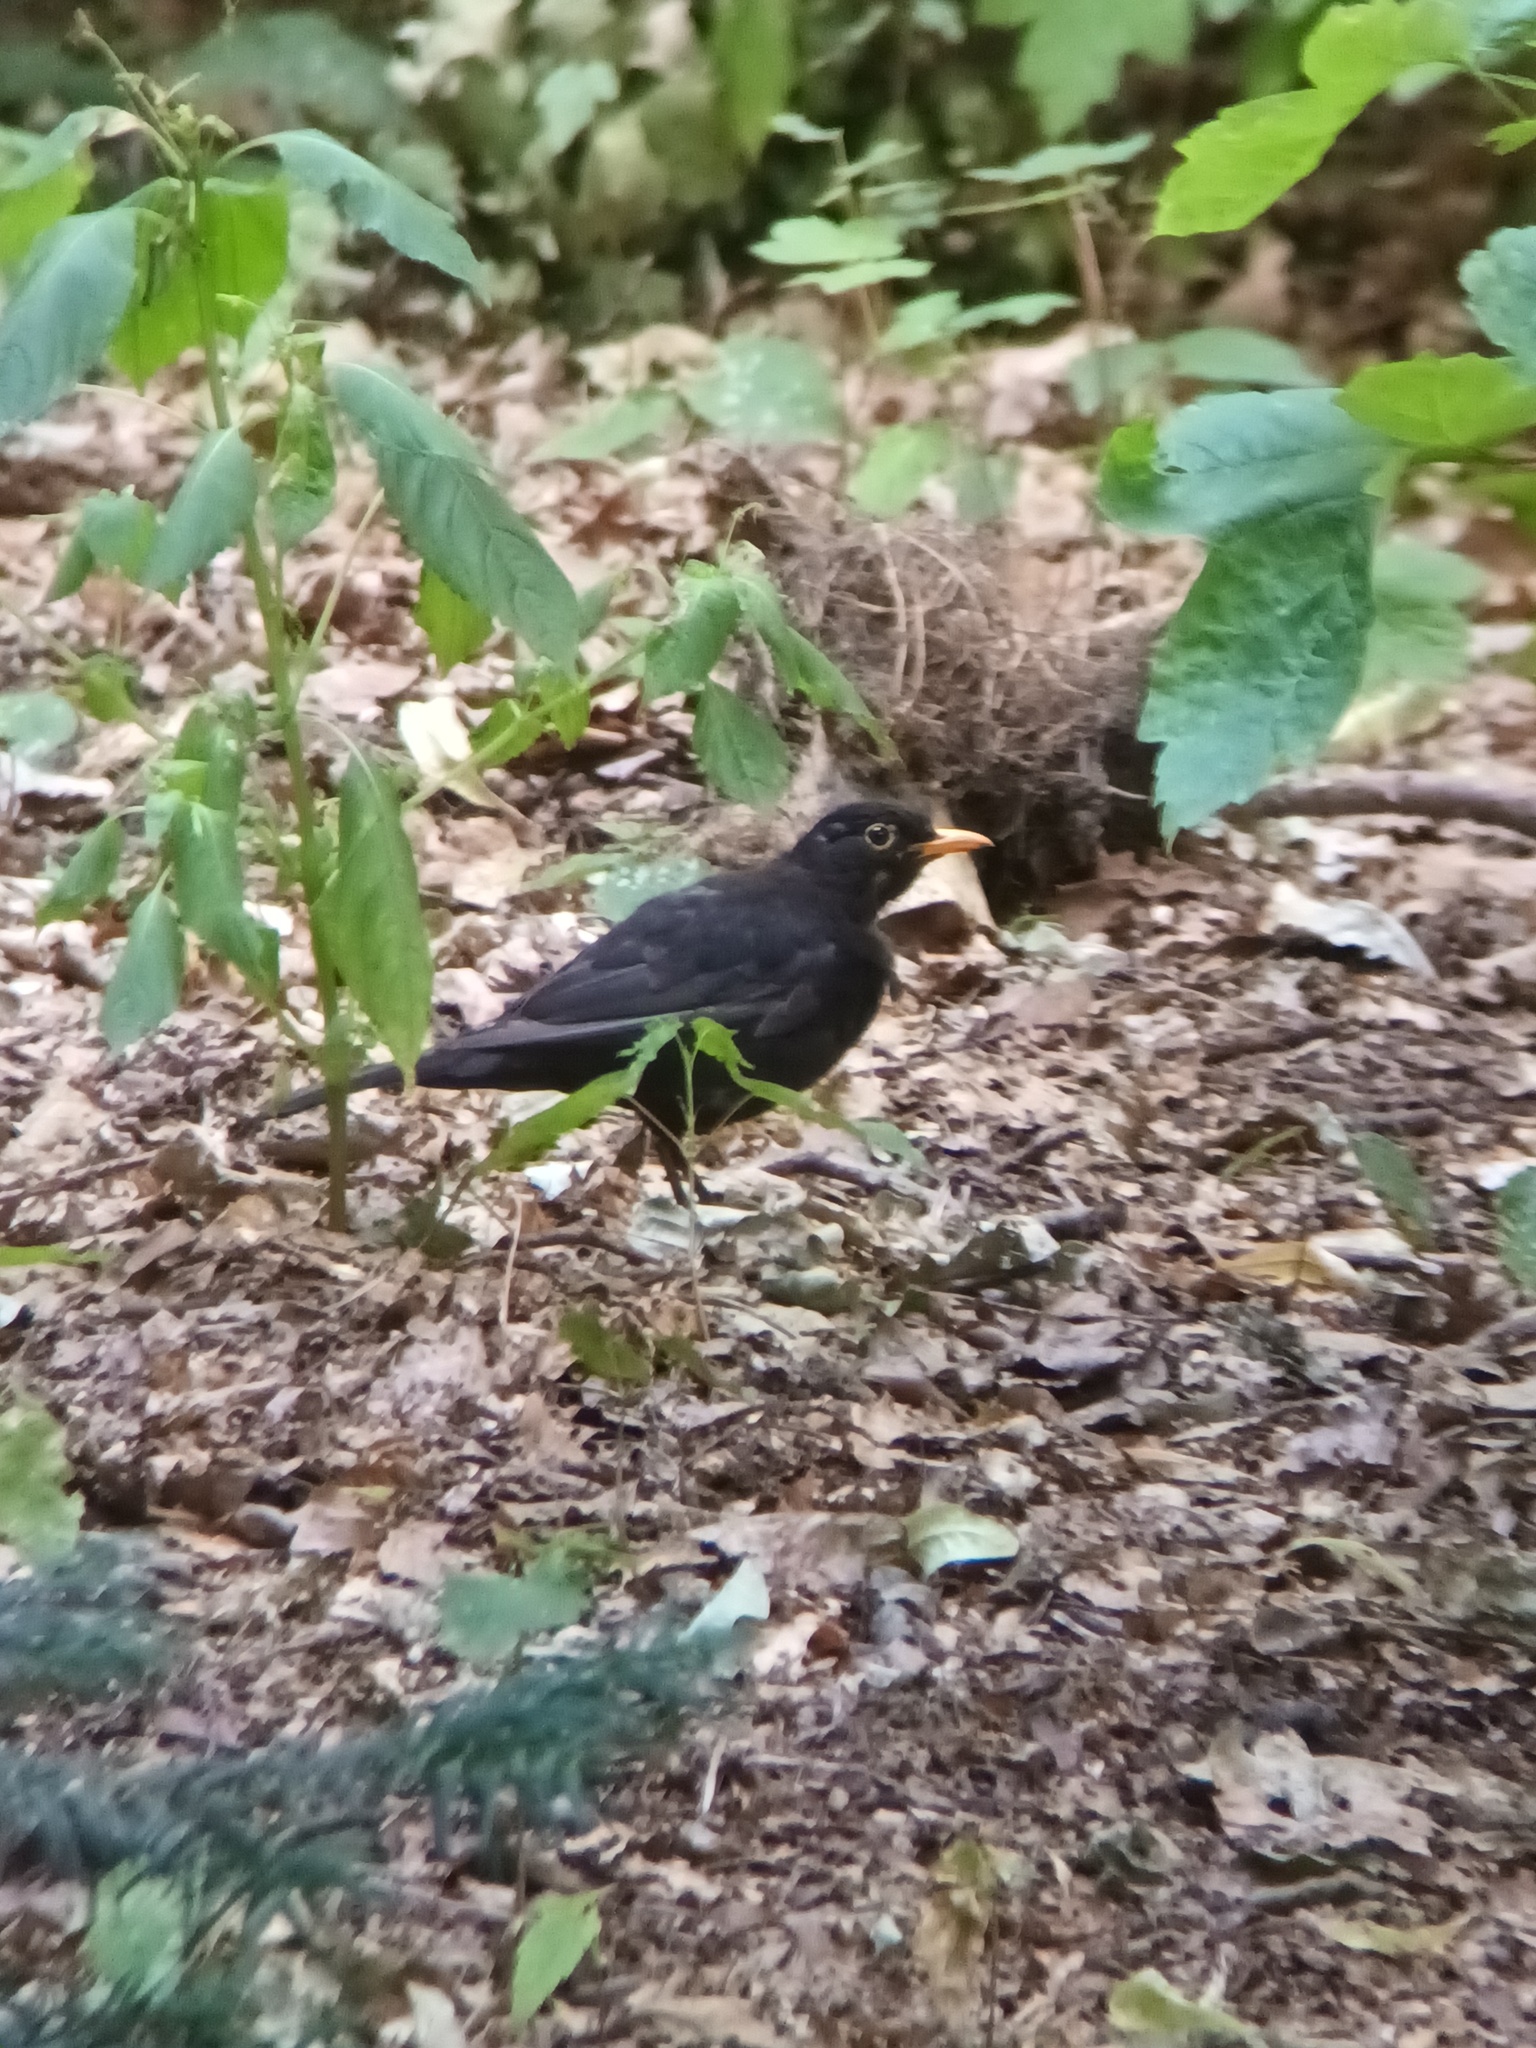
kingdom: Animalia
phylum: Chordata
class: Aves
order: Passeriformes
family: Turdidae
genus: Turdus
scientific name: Turdus merula
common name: Common blackbird
